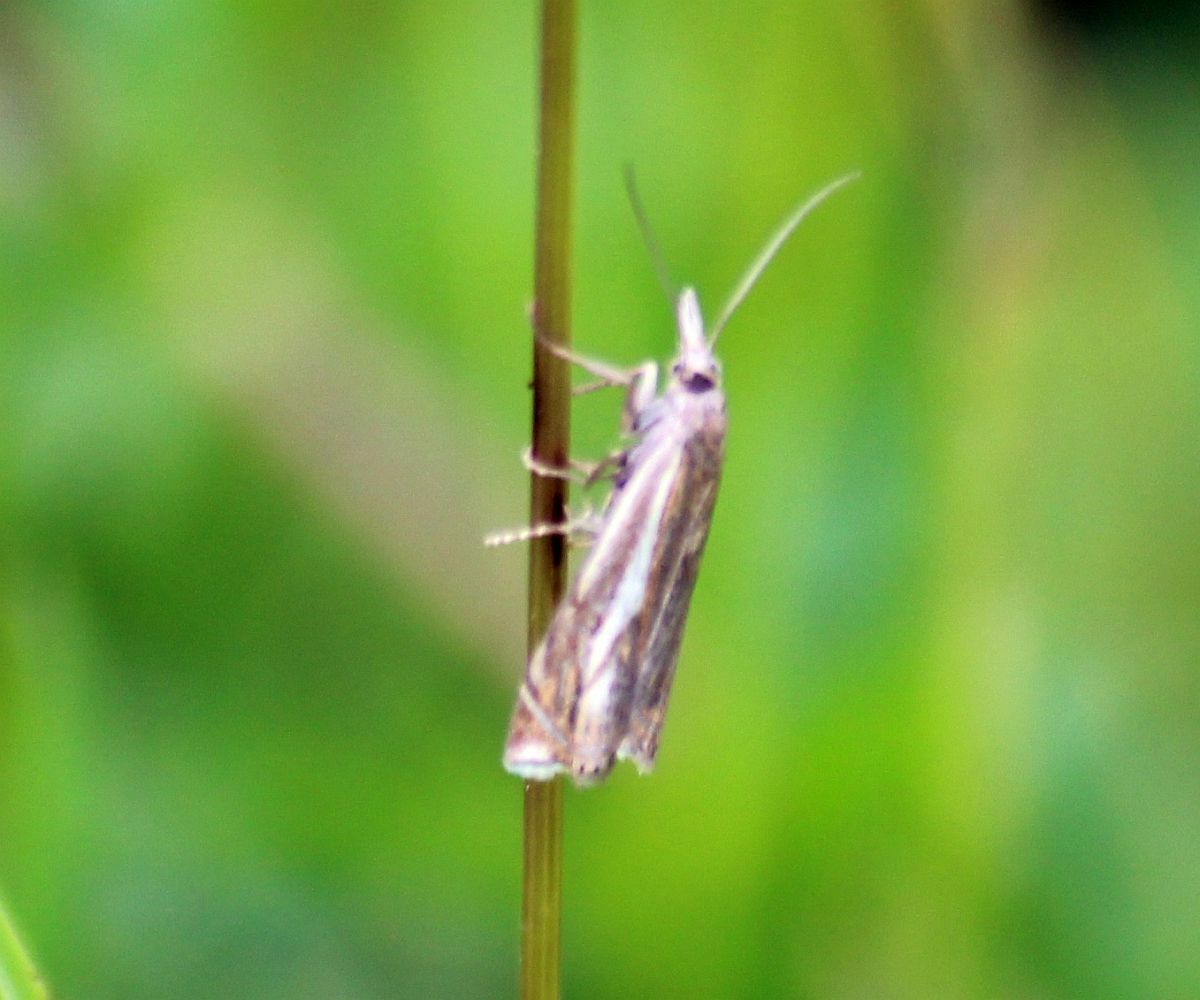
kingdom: Animalia
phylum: Arthropoda
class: Insecta
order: Lepidoptera
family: Crambidae
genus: Crambus
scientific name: Crambus nemorella
